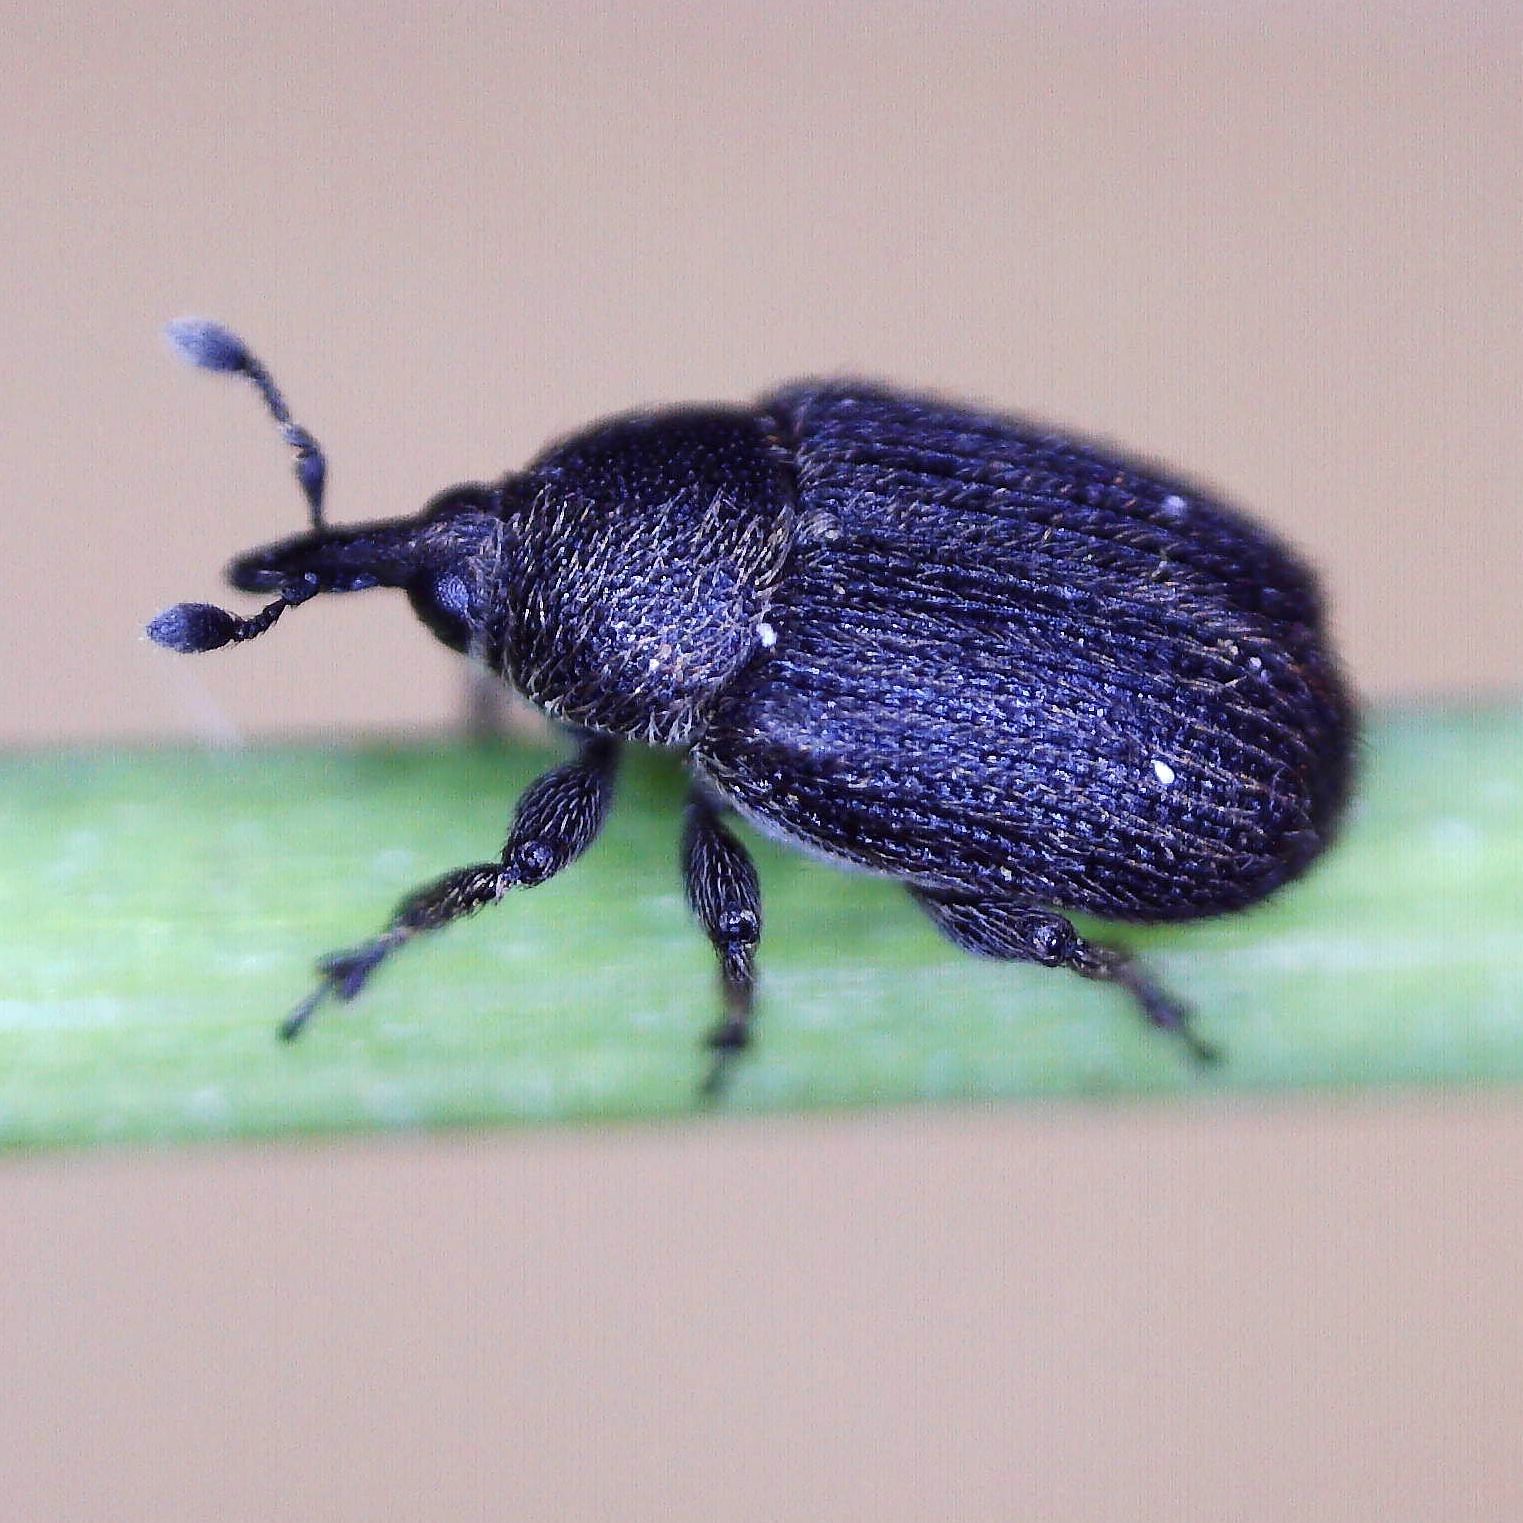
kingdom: Animalia
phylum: Arthropoda
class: Insecta
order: Coleoptera
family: Curculionidae
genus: Rhinusa
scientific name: Rhinusa antirrhini
